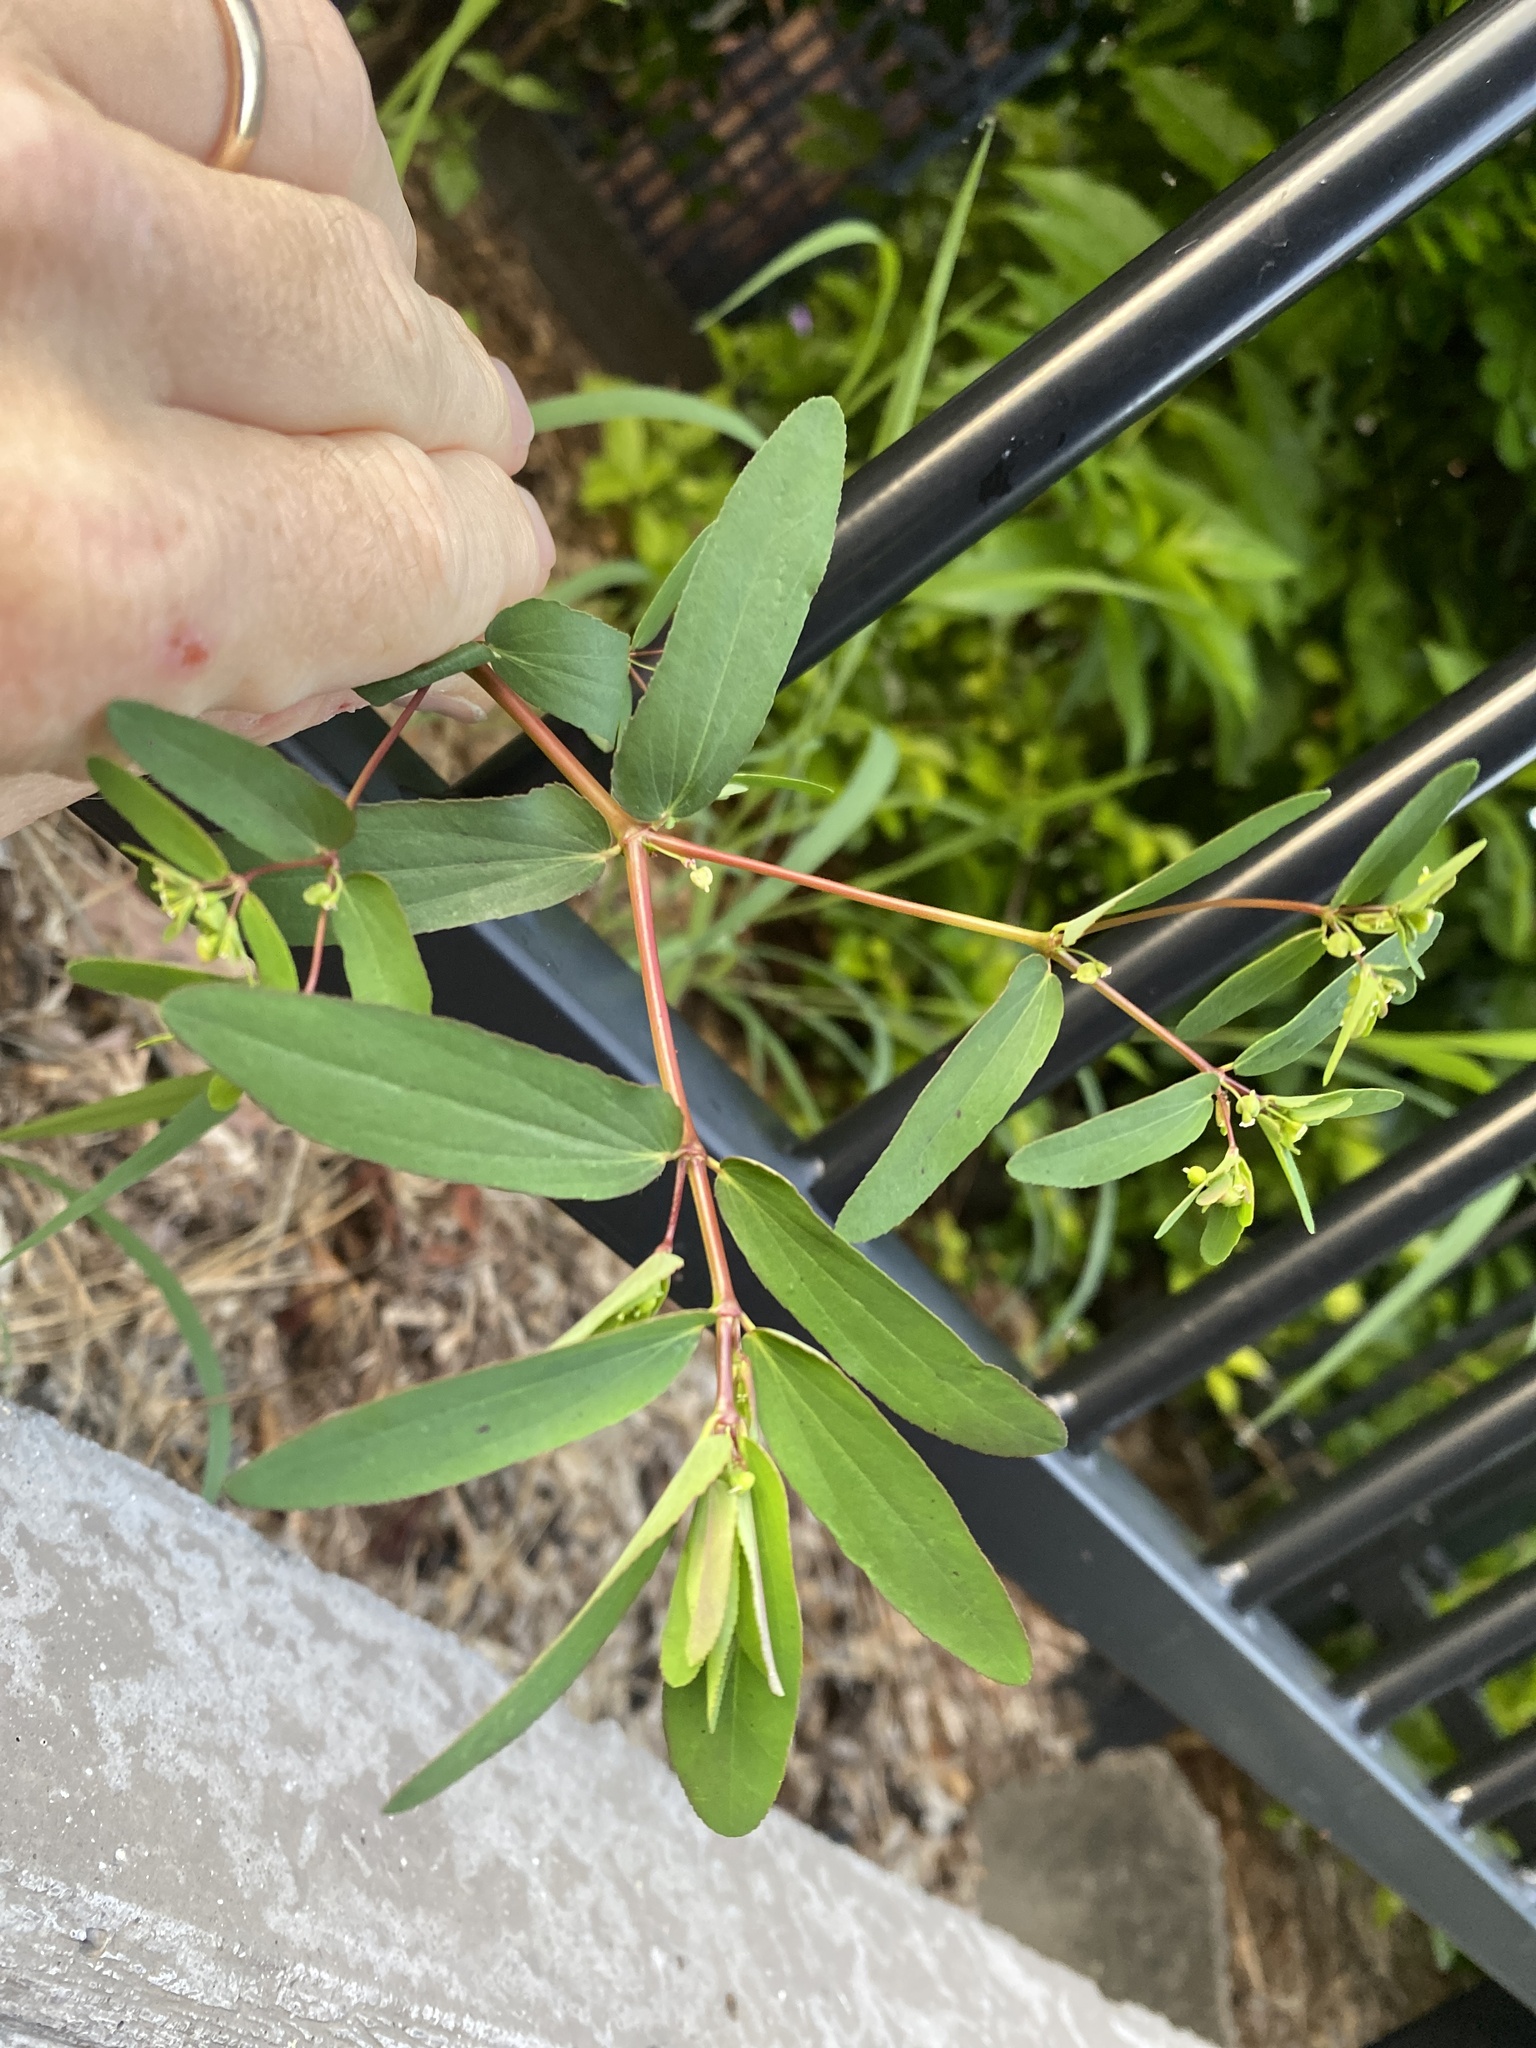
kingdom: Plantae
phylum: Tracheophyta
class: Magnoliopsida
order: Malpighiales
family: Euphorbiaceae
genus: Euphorbia
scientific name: Euphorbia hyssopifolia
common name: Hyssopleaf sandmat
